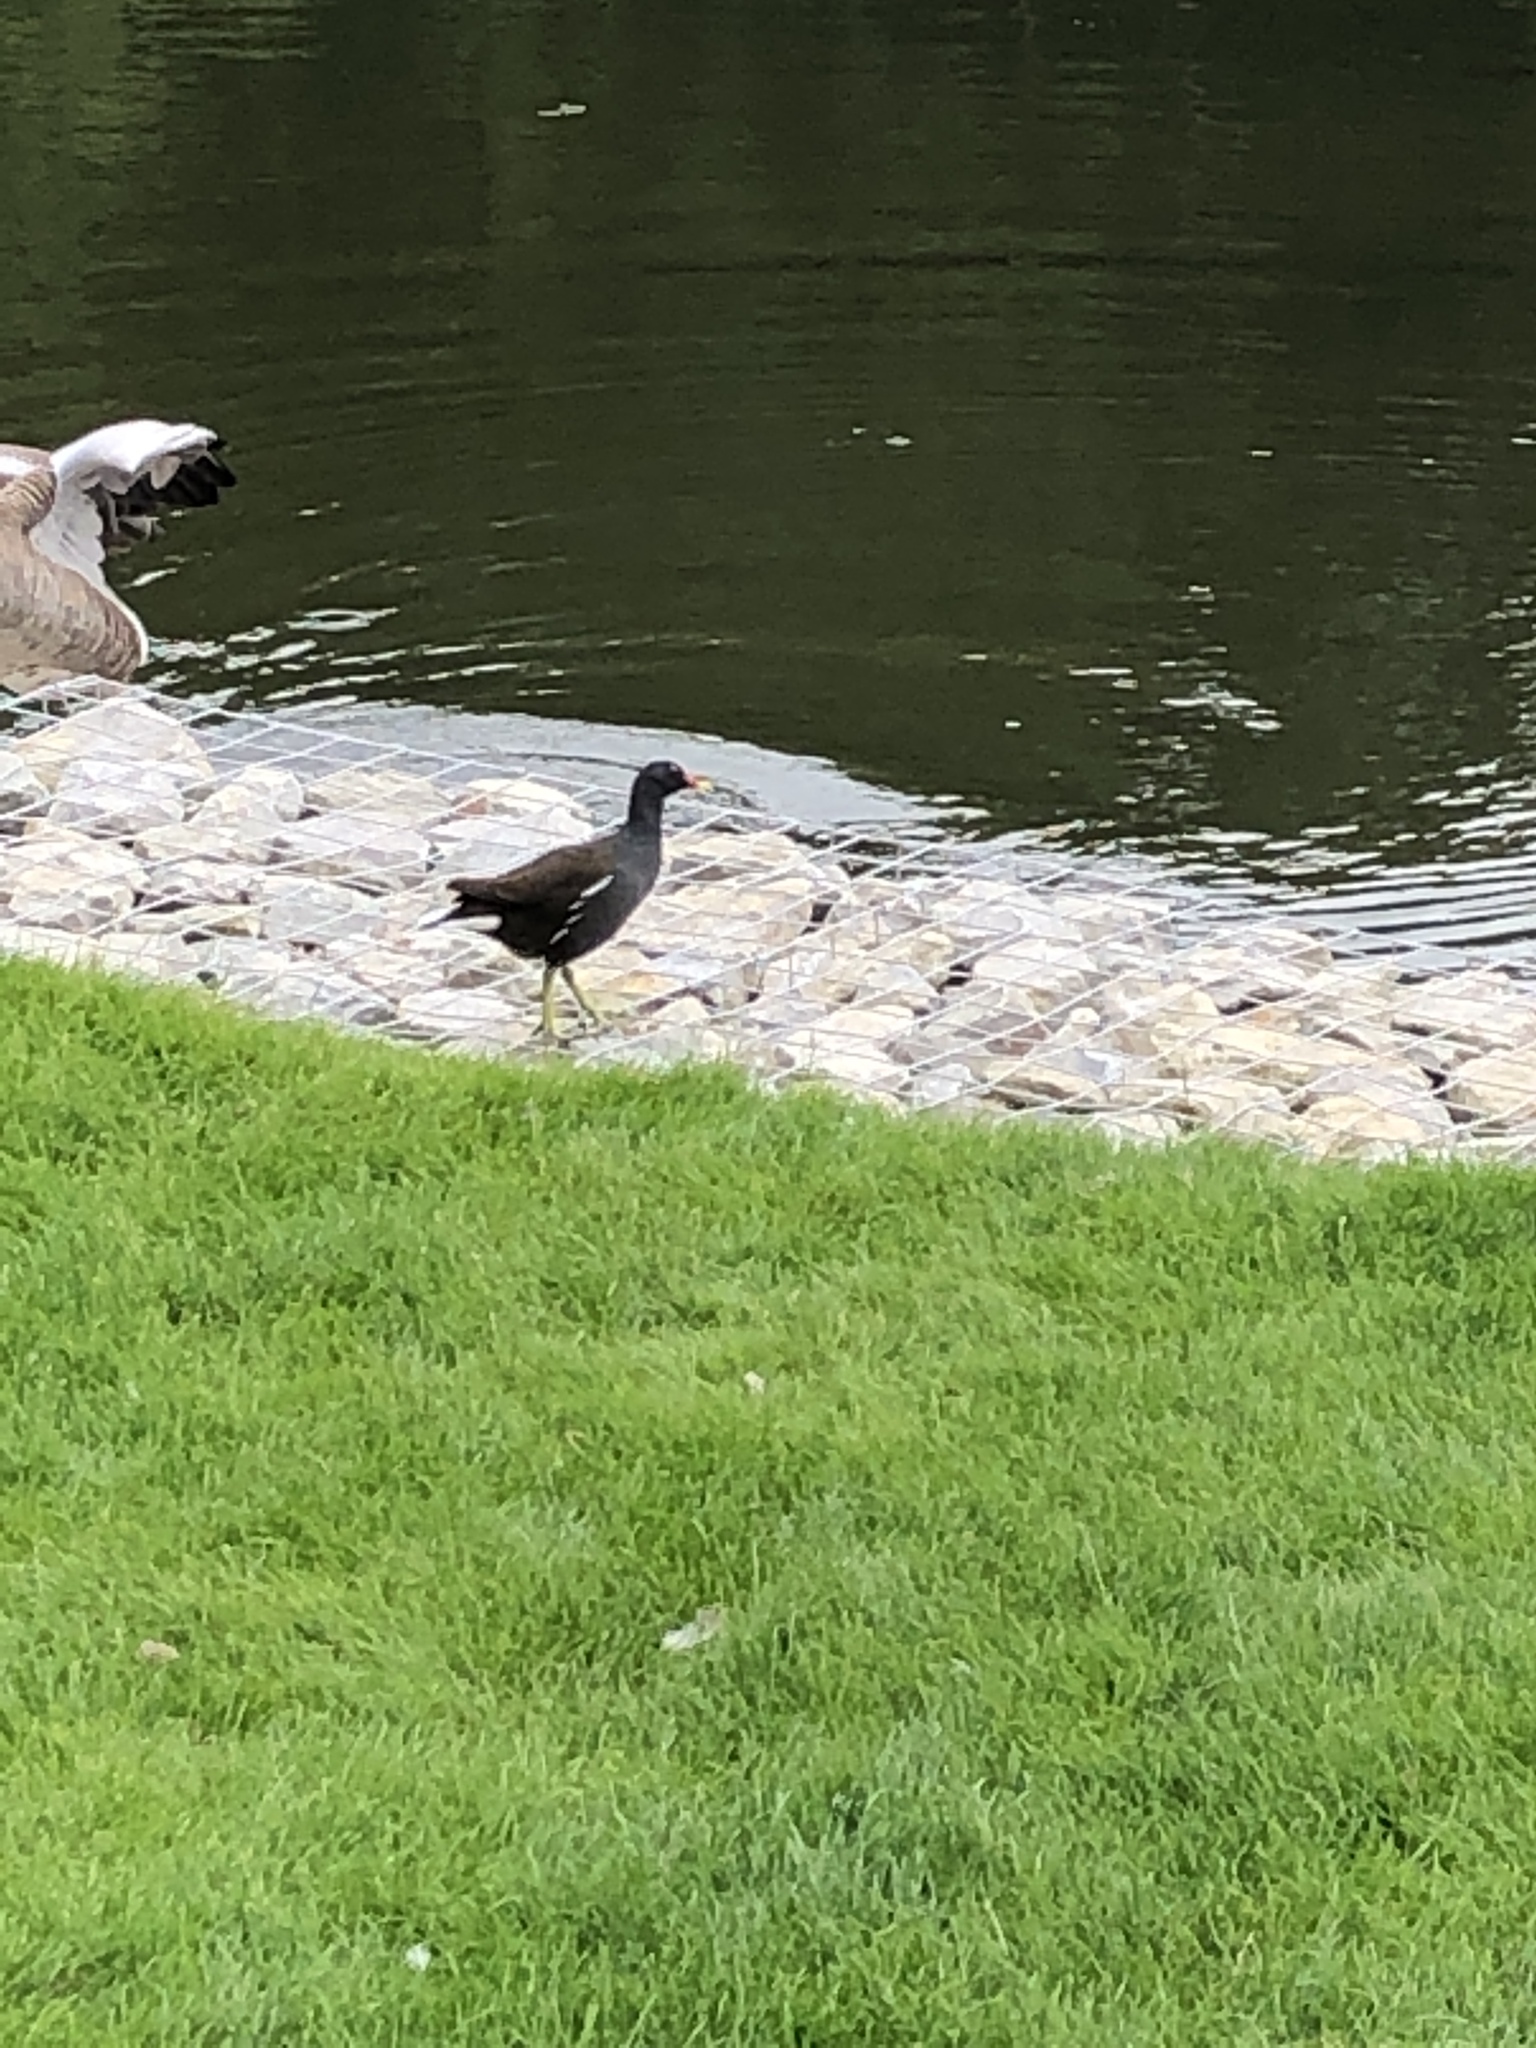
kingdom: Animalia
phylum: Chordata
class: Aves
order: Gruiformes
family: Rallidae
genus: Gallinula
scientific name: Gallinula chloropus
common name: Common moorhen
